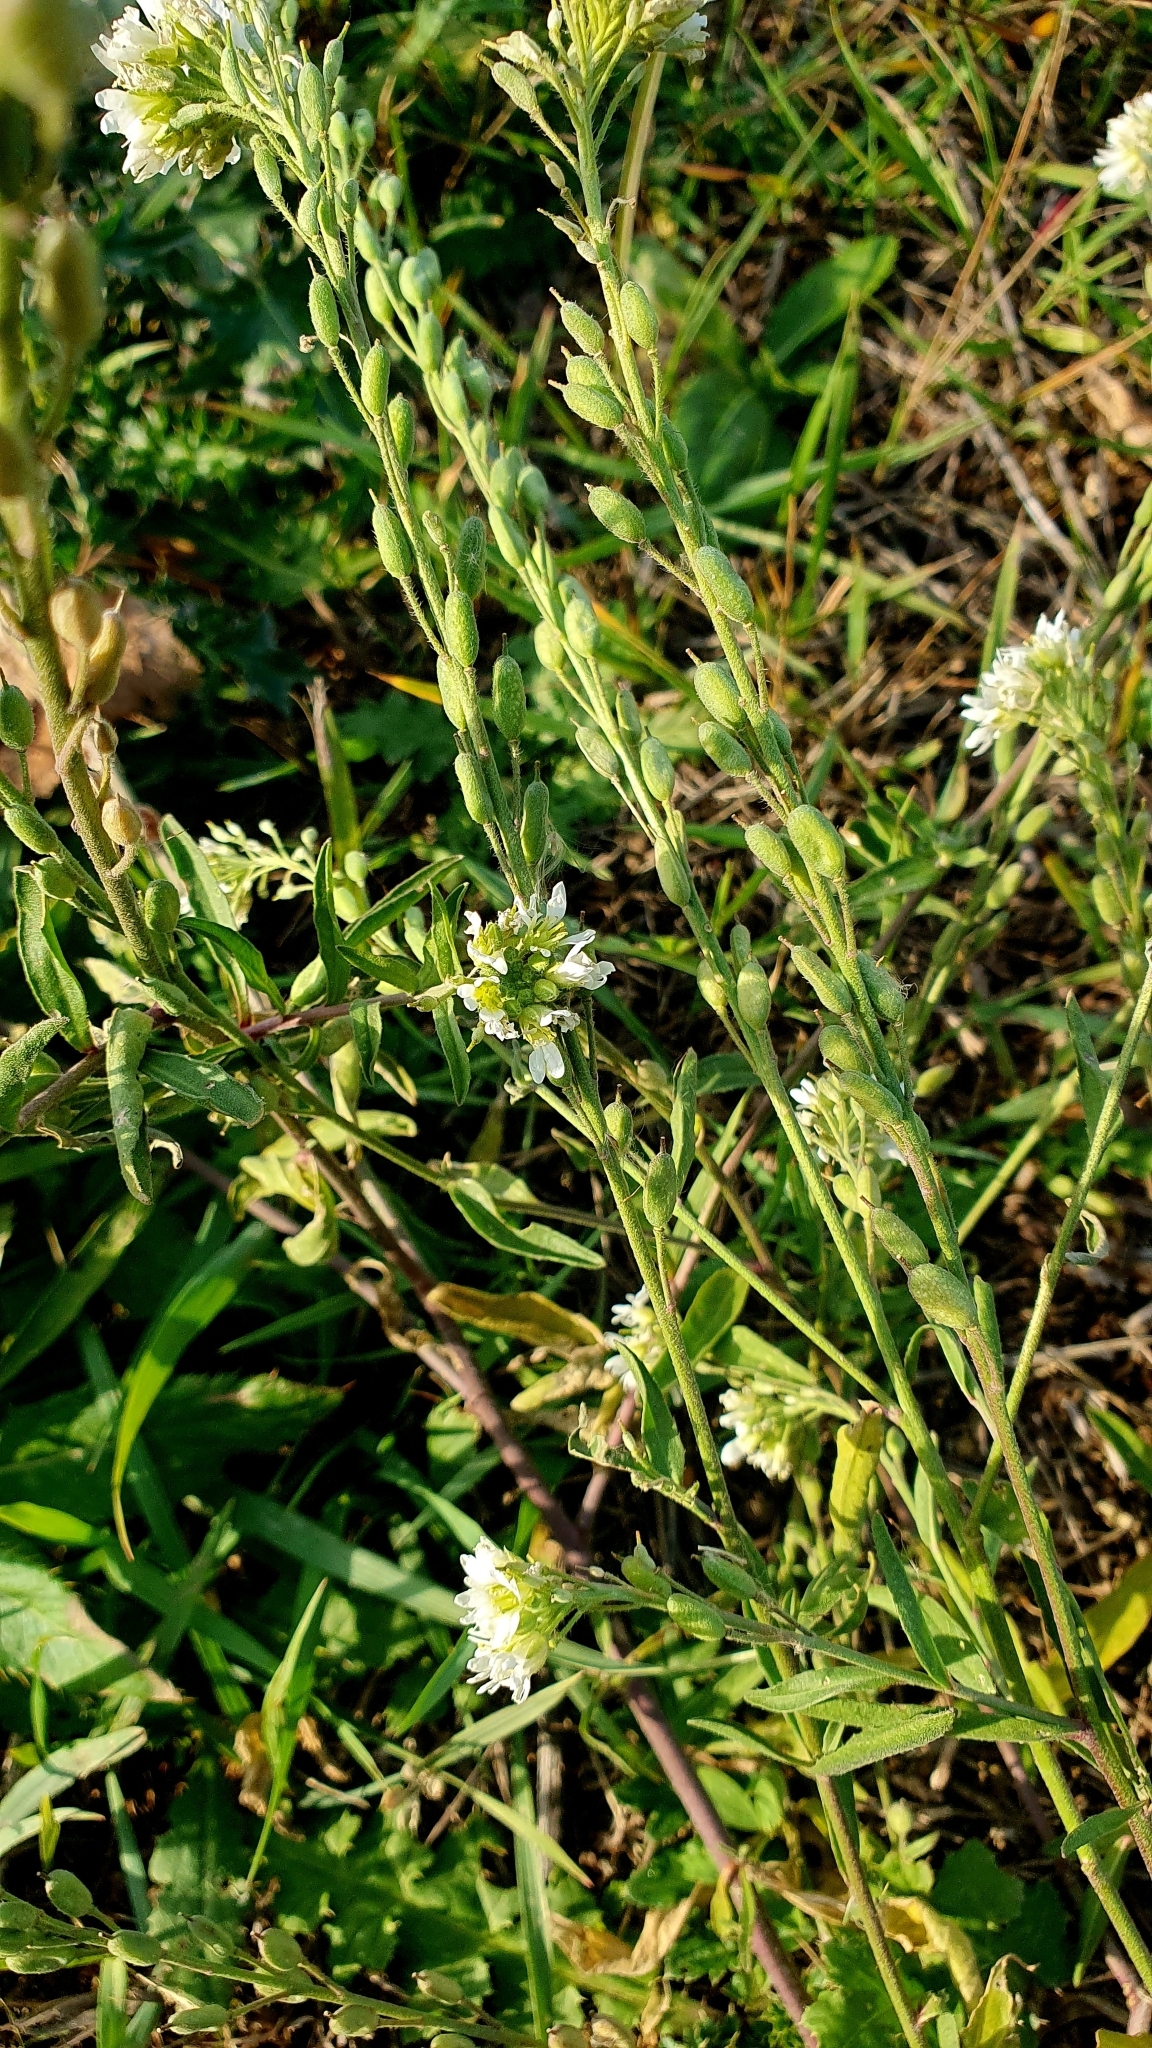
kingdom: Plantae
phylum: Tracheophyta
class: Magnoliopsida
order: Brassicales
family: Brassicaceae
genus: Berteroa
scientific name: Berteroa incana
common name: Hoary alison
